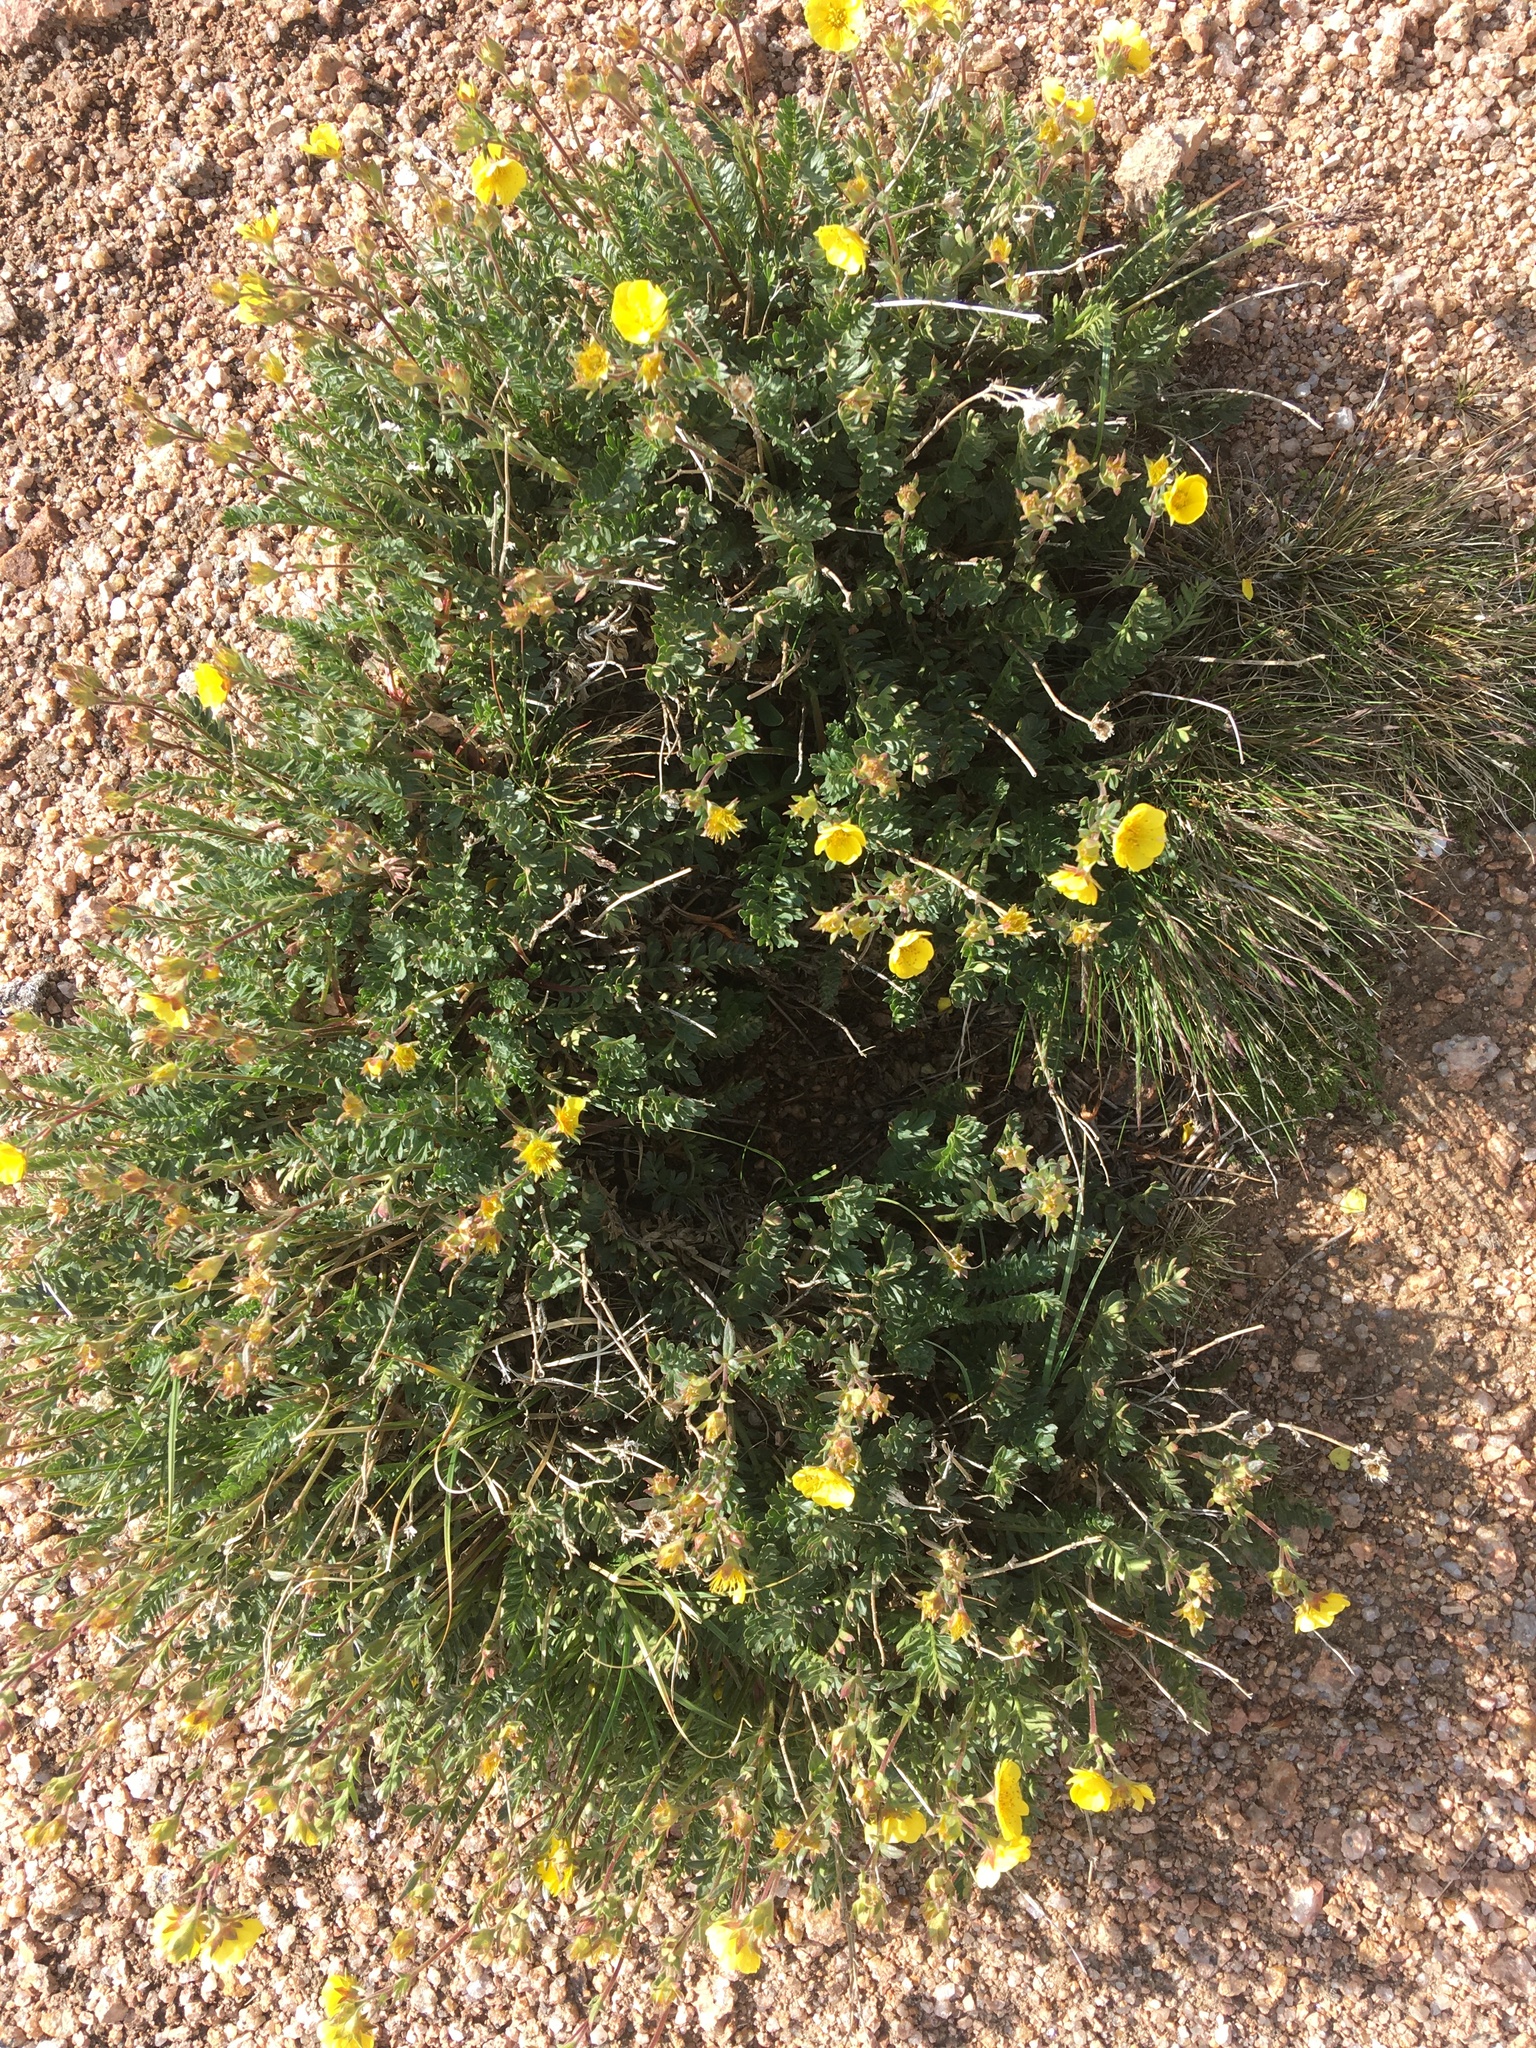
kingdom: Plantae
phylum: Tracheophyta
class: Magnoliopsida
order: Rosales
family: Rosaceae
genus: Geum
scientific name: Geum rossii
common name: Alpine avens
